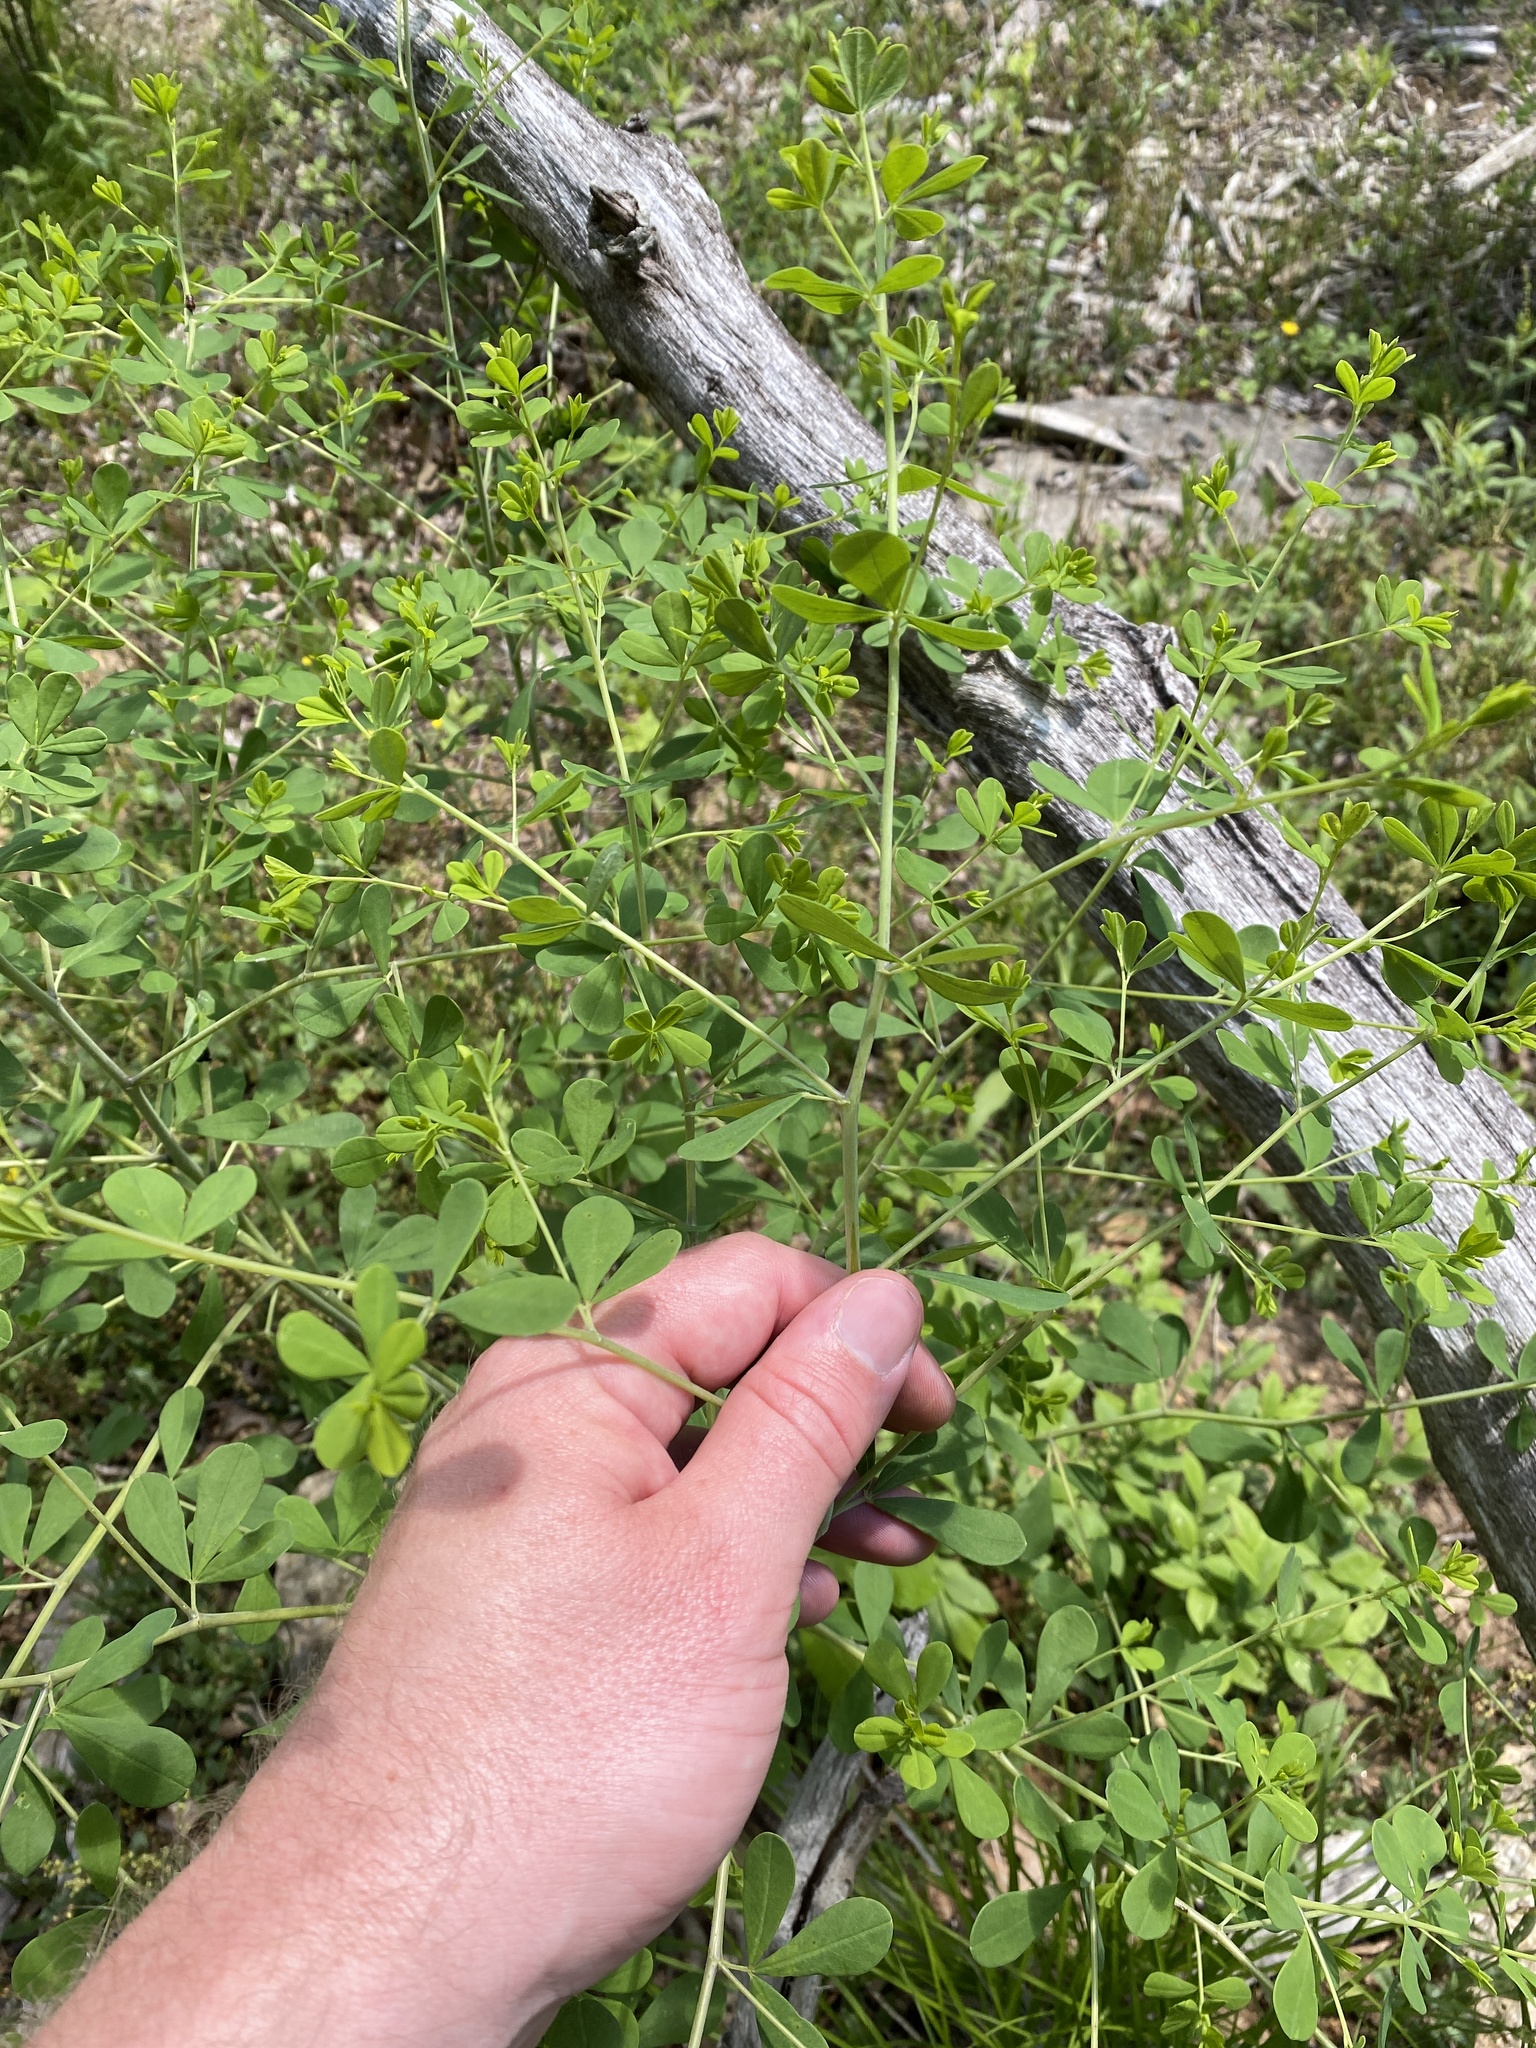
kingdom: Plantae
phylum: Tracheophyta
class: Magnoliopsida
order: Fabales
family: Fabaceae
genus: Baptisia
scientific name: Baptisia tinctoria
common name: Wild indigo
